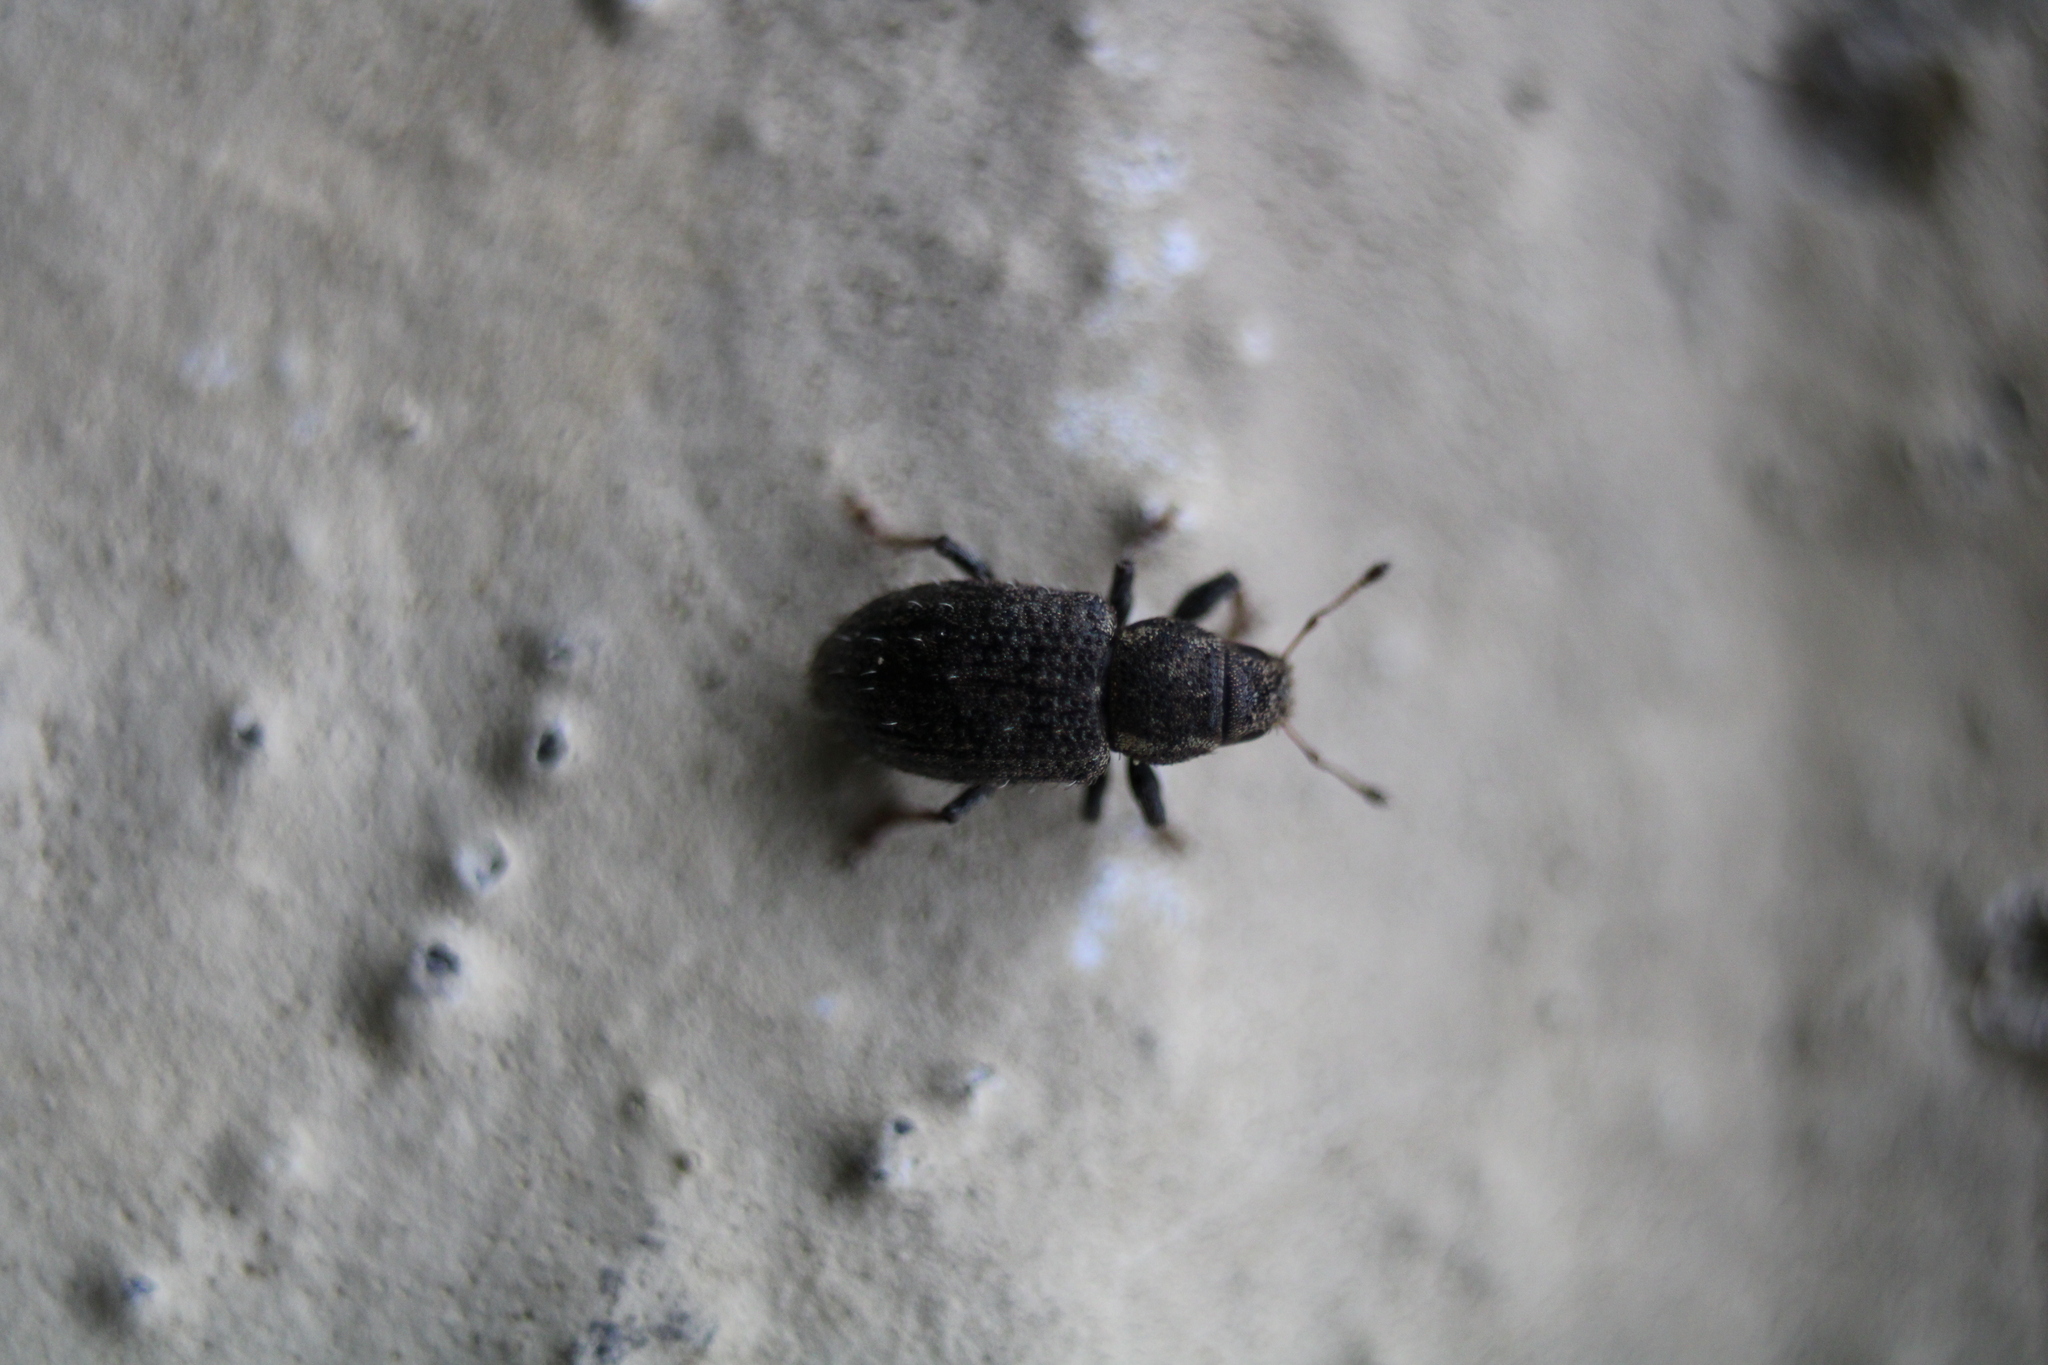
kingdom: Animalia
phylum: Arthropoda
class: Insecta
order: Coleoptera
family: Curculionidae
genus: Sitona
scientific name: Sitona hispidulus
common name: Clover weevil
